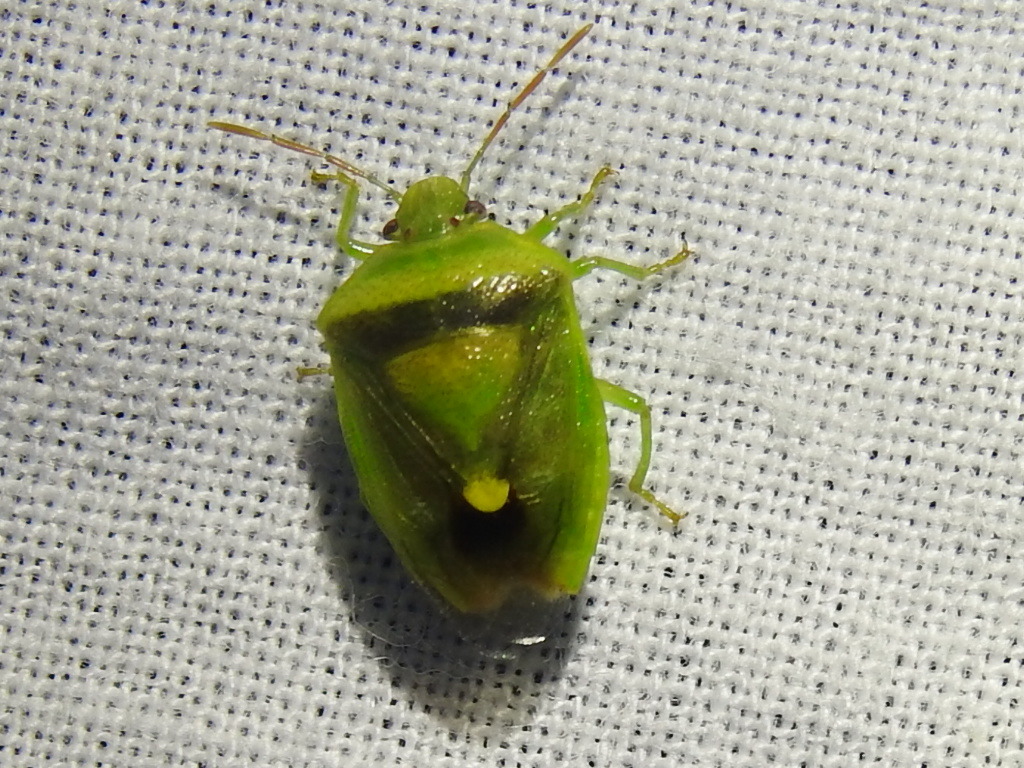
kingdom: Animalia
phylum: Arthropoda
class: Insecta
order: Hemiptera
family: Pentatomidae
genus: Banasa
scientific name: Banasa dimidiata
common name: Green burgundy stink bug
